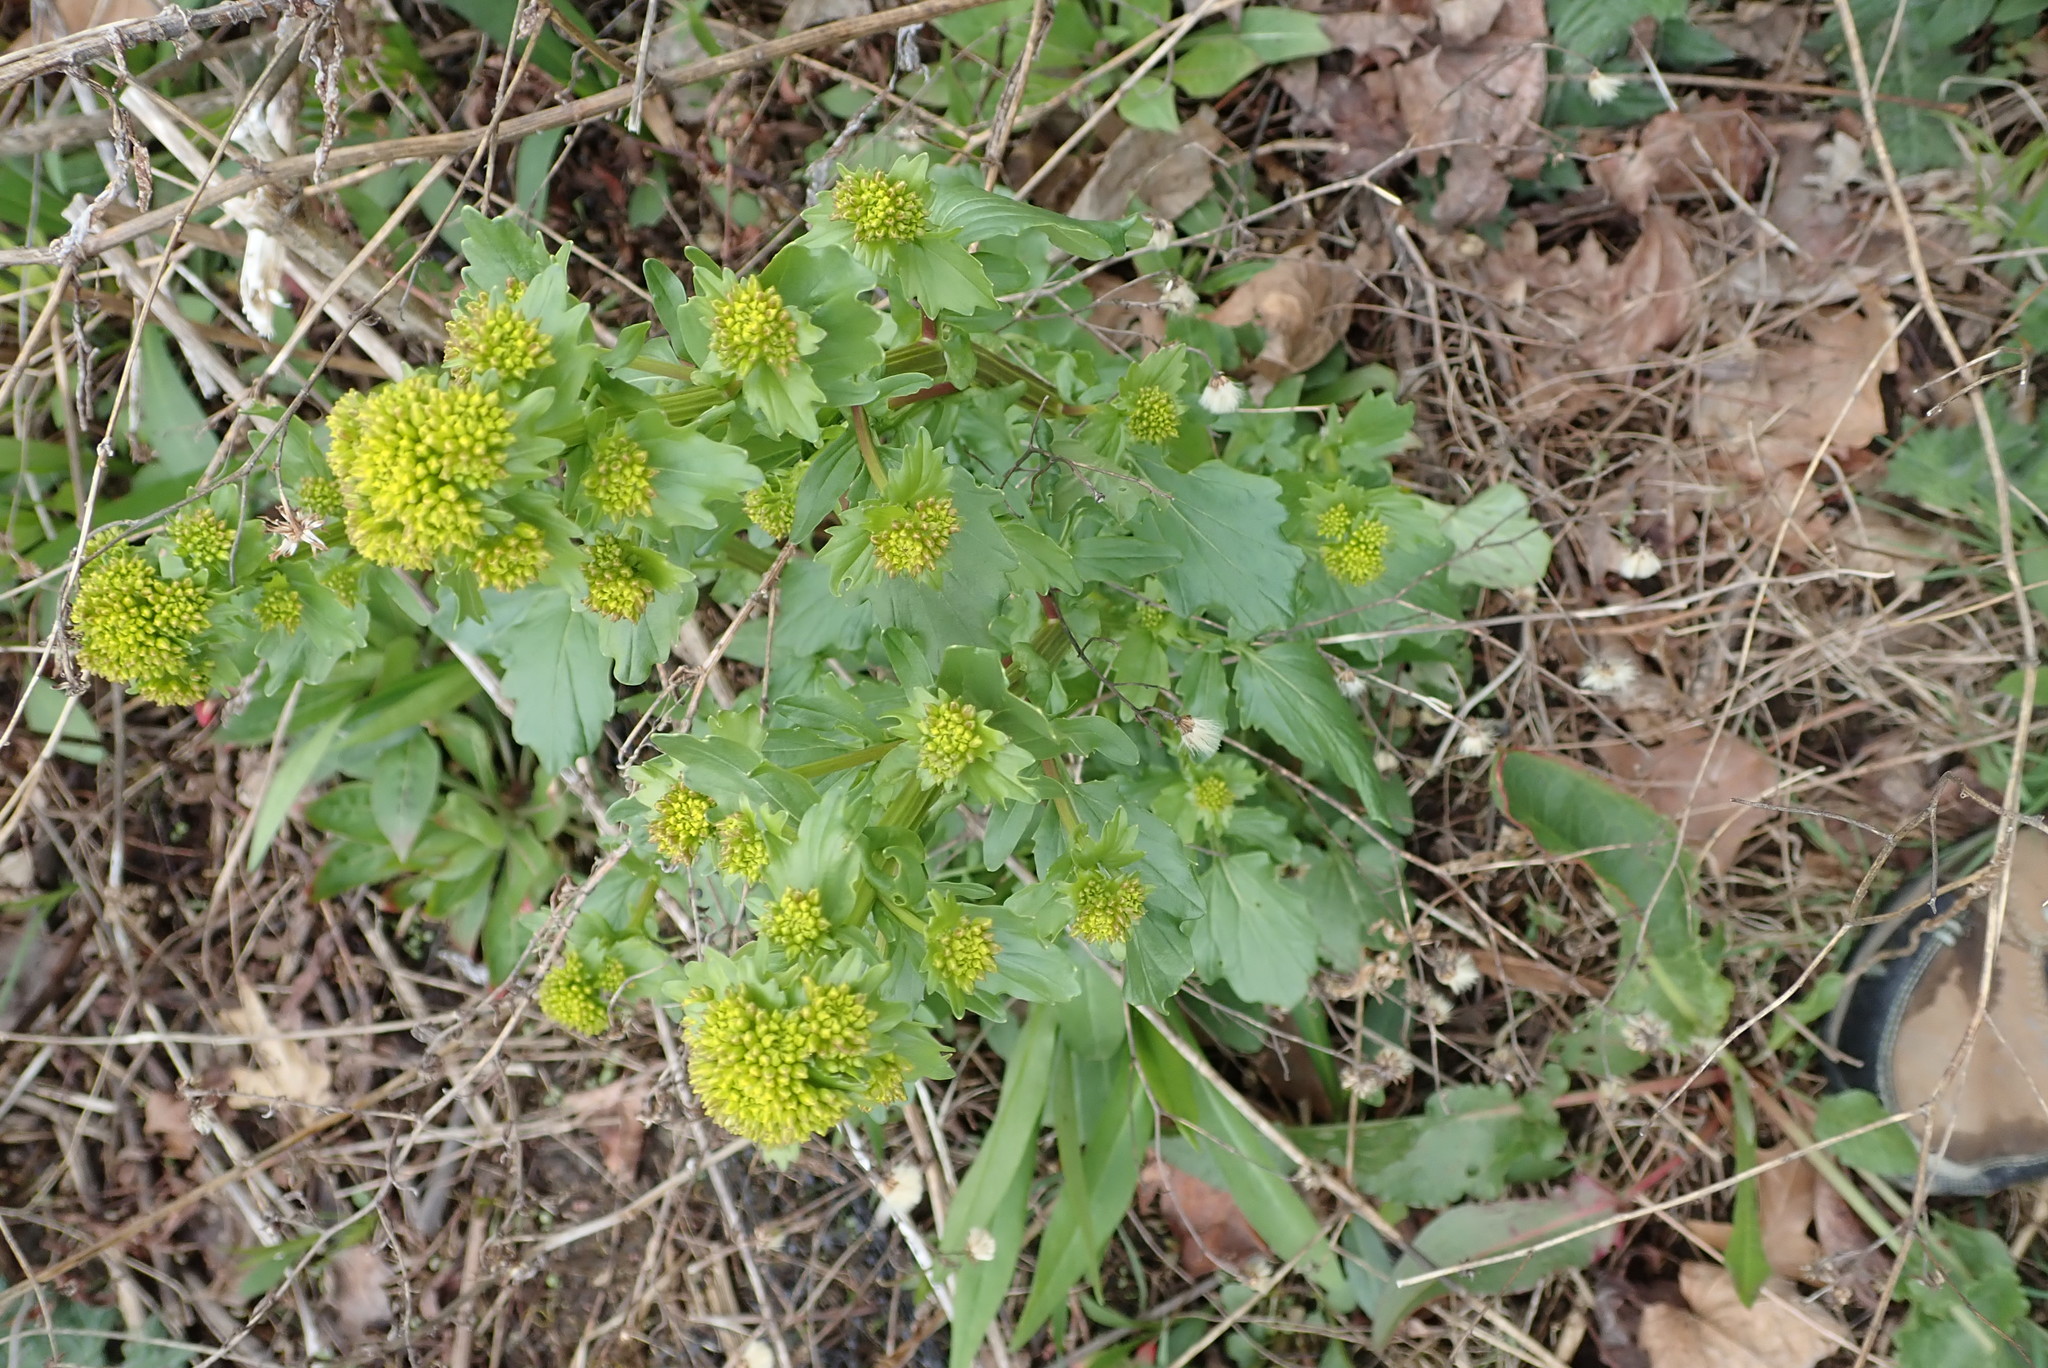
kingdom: Plantae
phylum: Tracheophyta
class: Magnoliopsida
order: Brassicales
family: Brassicaceae
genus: Barbarea
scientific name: Barbarea vulgaris
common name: Cressy-greens
